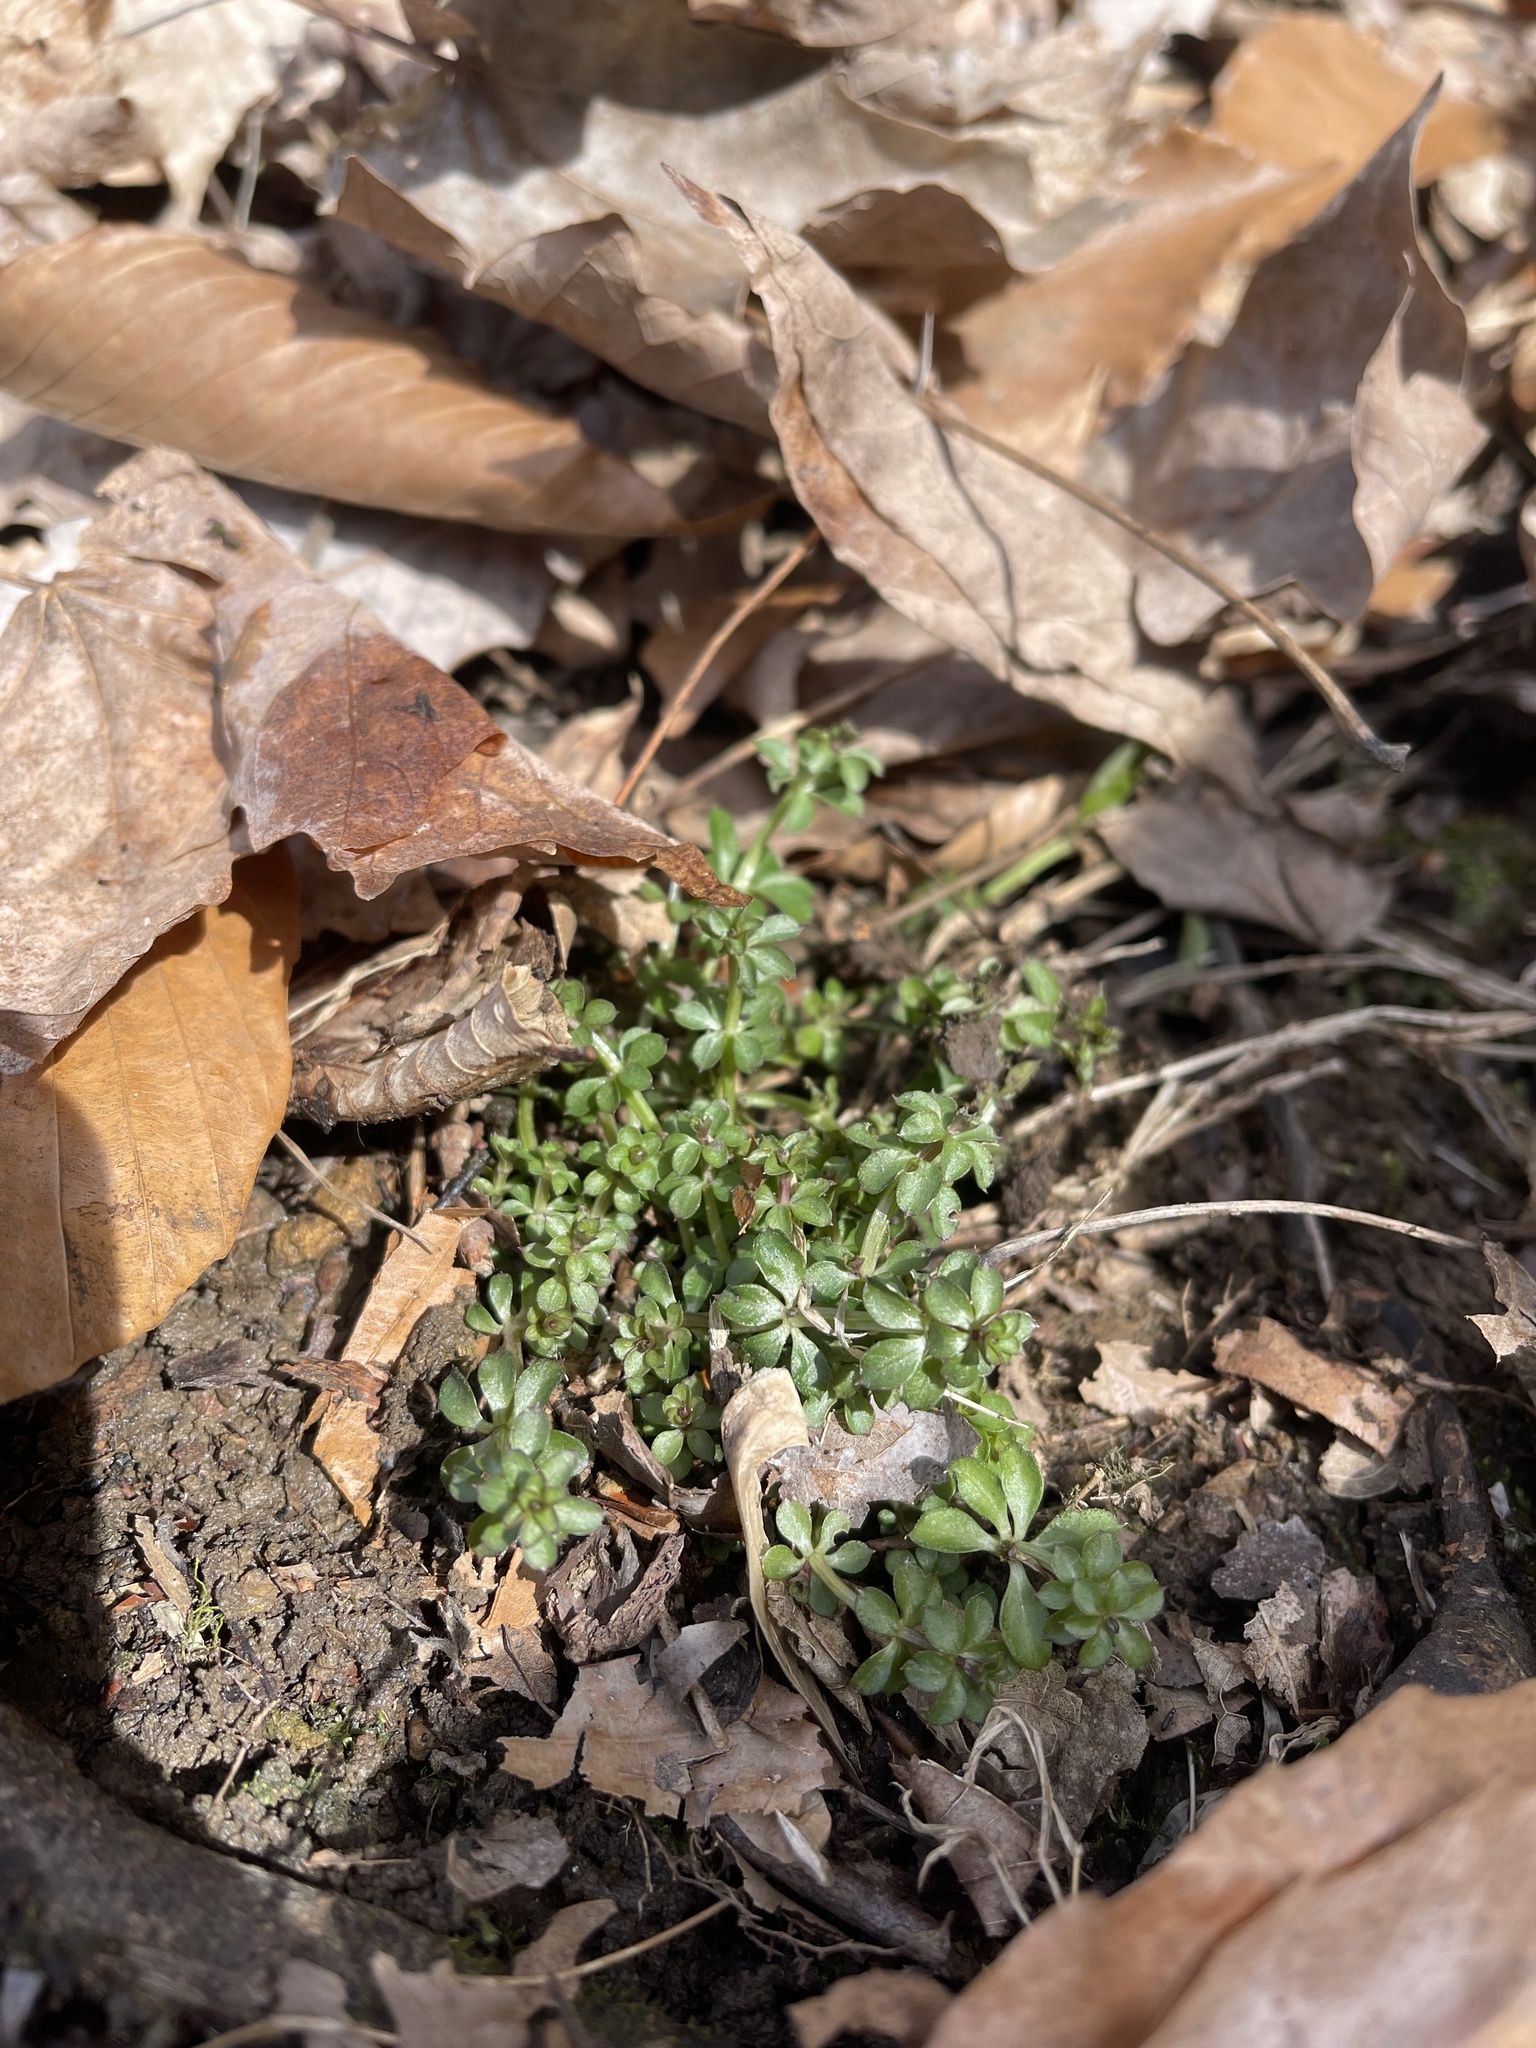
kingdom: Plantae
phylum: Tracheophyta
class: Magnoliopsida
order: Gentianales
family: Rubiaceae
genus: Galium
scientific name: Galium triflorum
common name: Fragrant bedstraw
